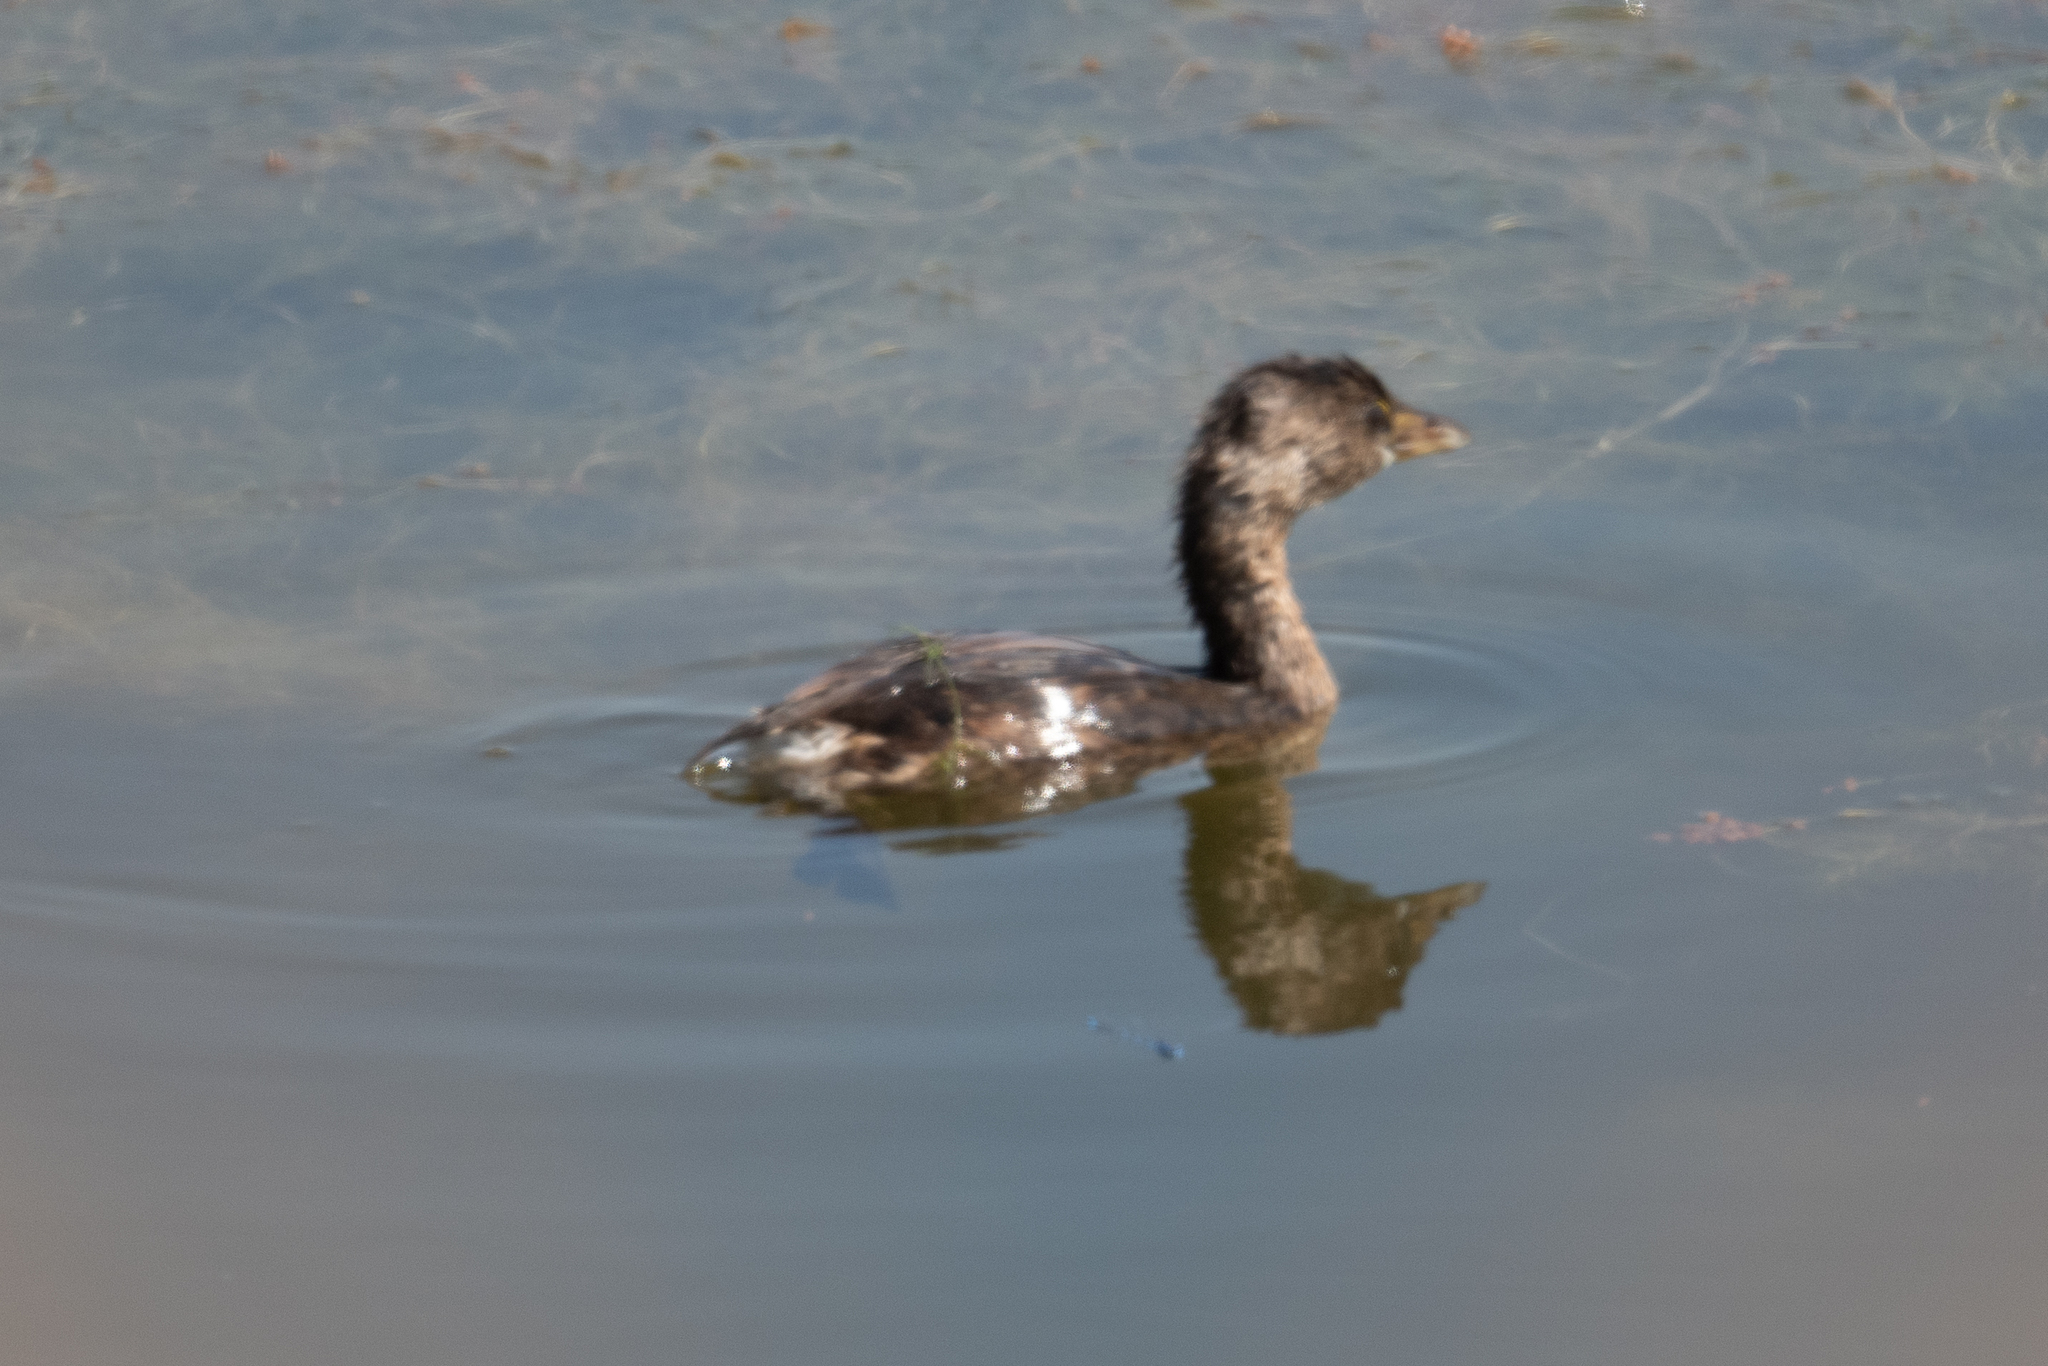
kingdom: Animalia
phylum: Chordata
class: Aves
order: Podicipediformes
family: Podicipedidae
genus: Podilymbus
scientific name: Podilymbus podiceps
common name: Pied-billed grebe
